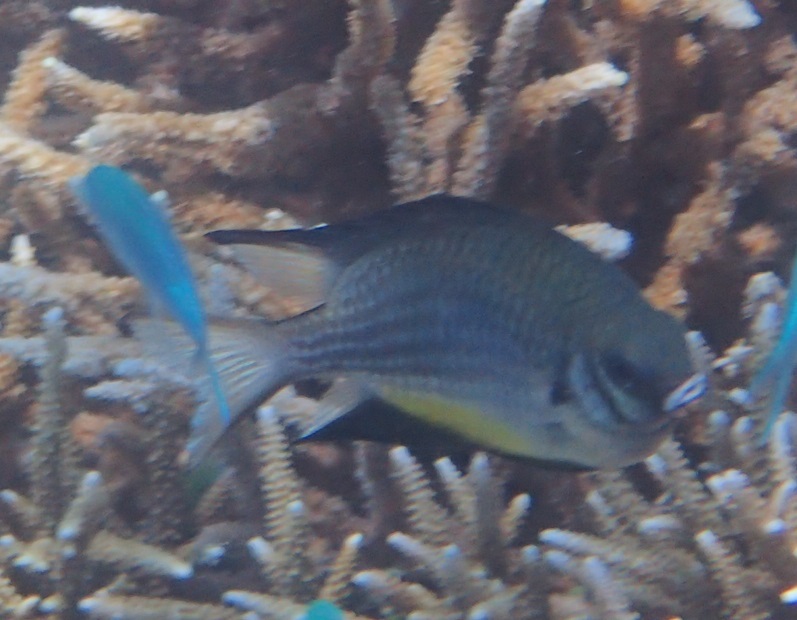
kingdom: Animalia
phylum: Chordata
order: Perciformes
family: Pomacentridae
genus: Amblyglyphidodon
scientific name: Amblyglyphidodon leucogaster
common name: White-belly damsel
